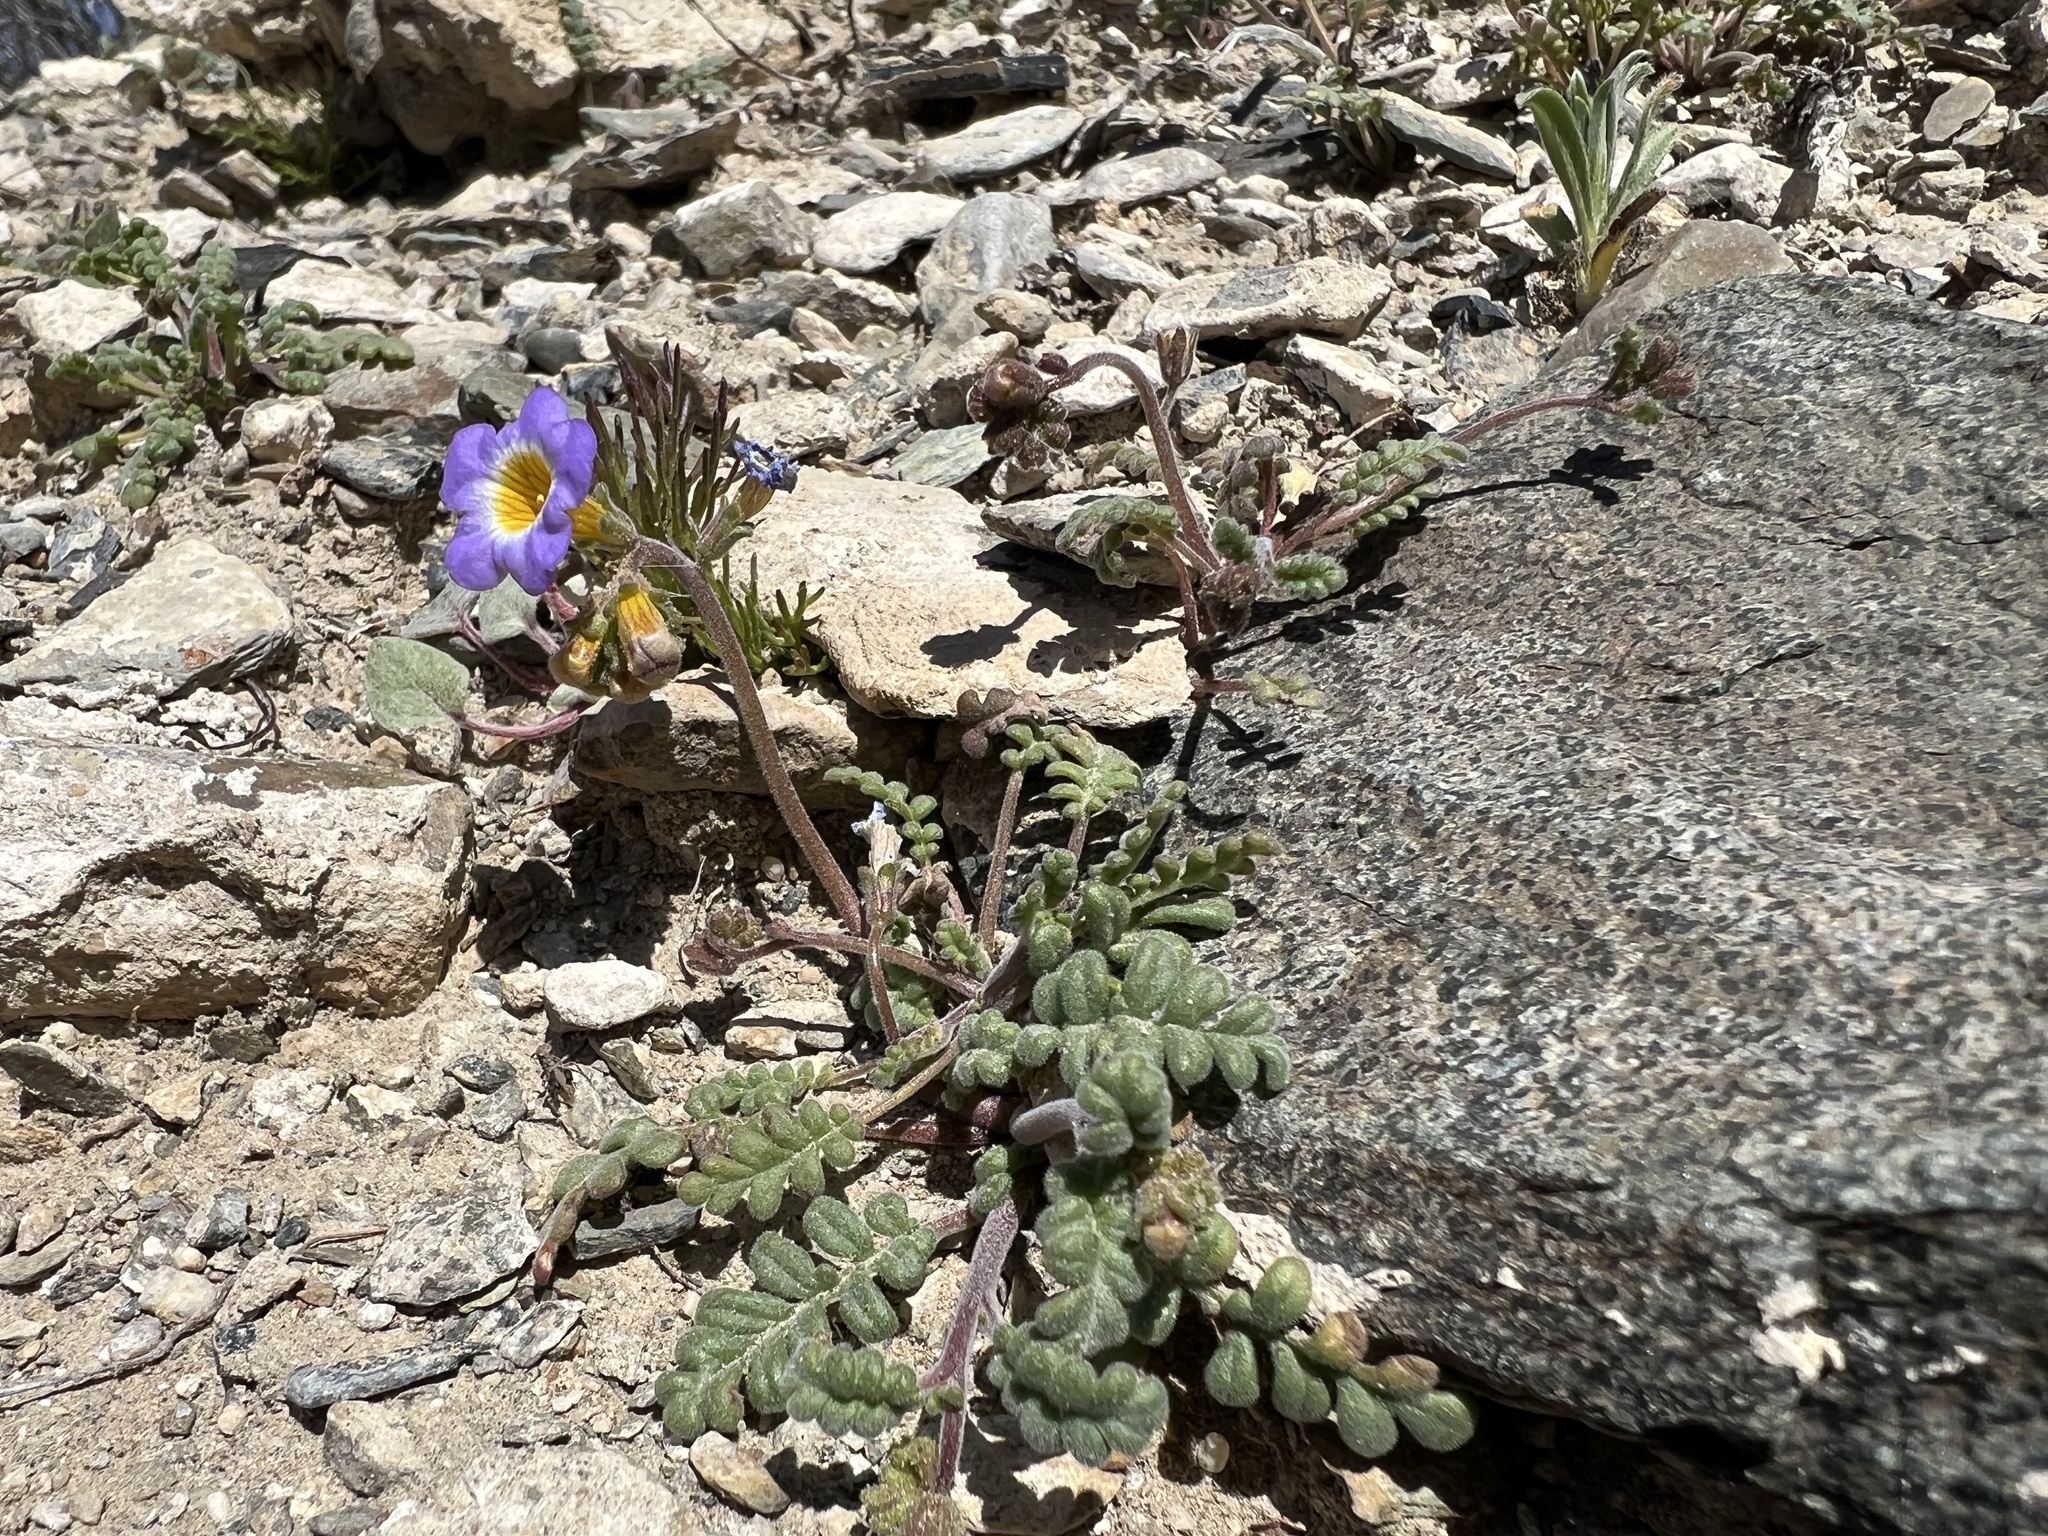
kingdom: Plantae
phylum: Tracheophyta
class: Magnoliopsida
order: Boraginales
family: Hydrophyllaceae
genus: Phacelia
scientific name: Phacelia fremontii
